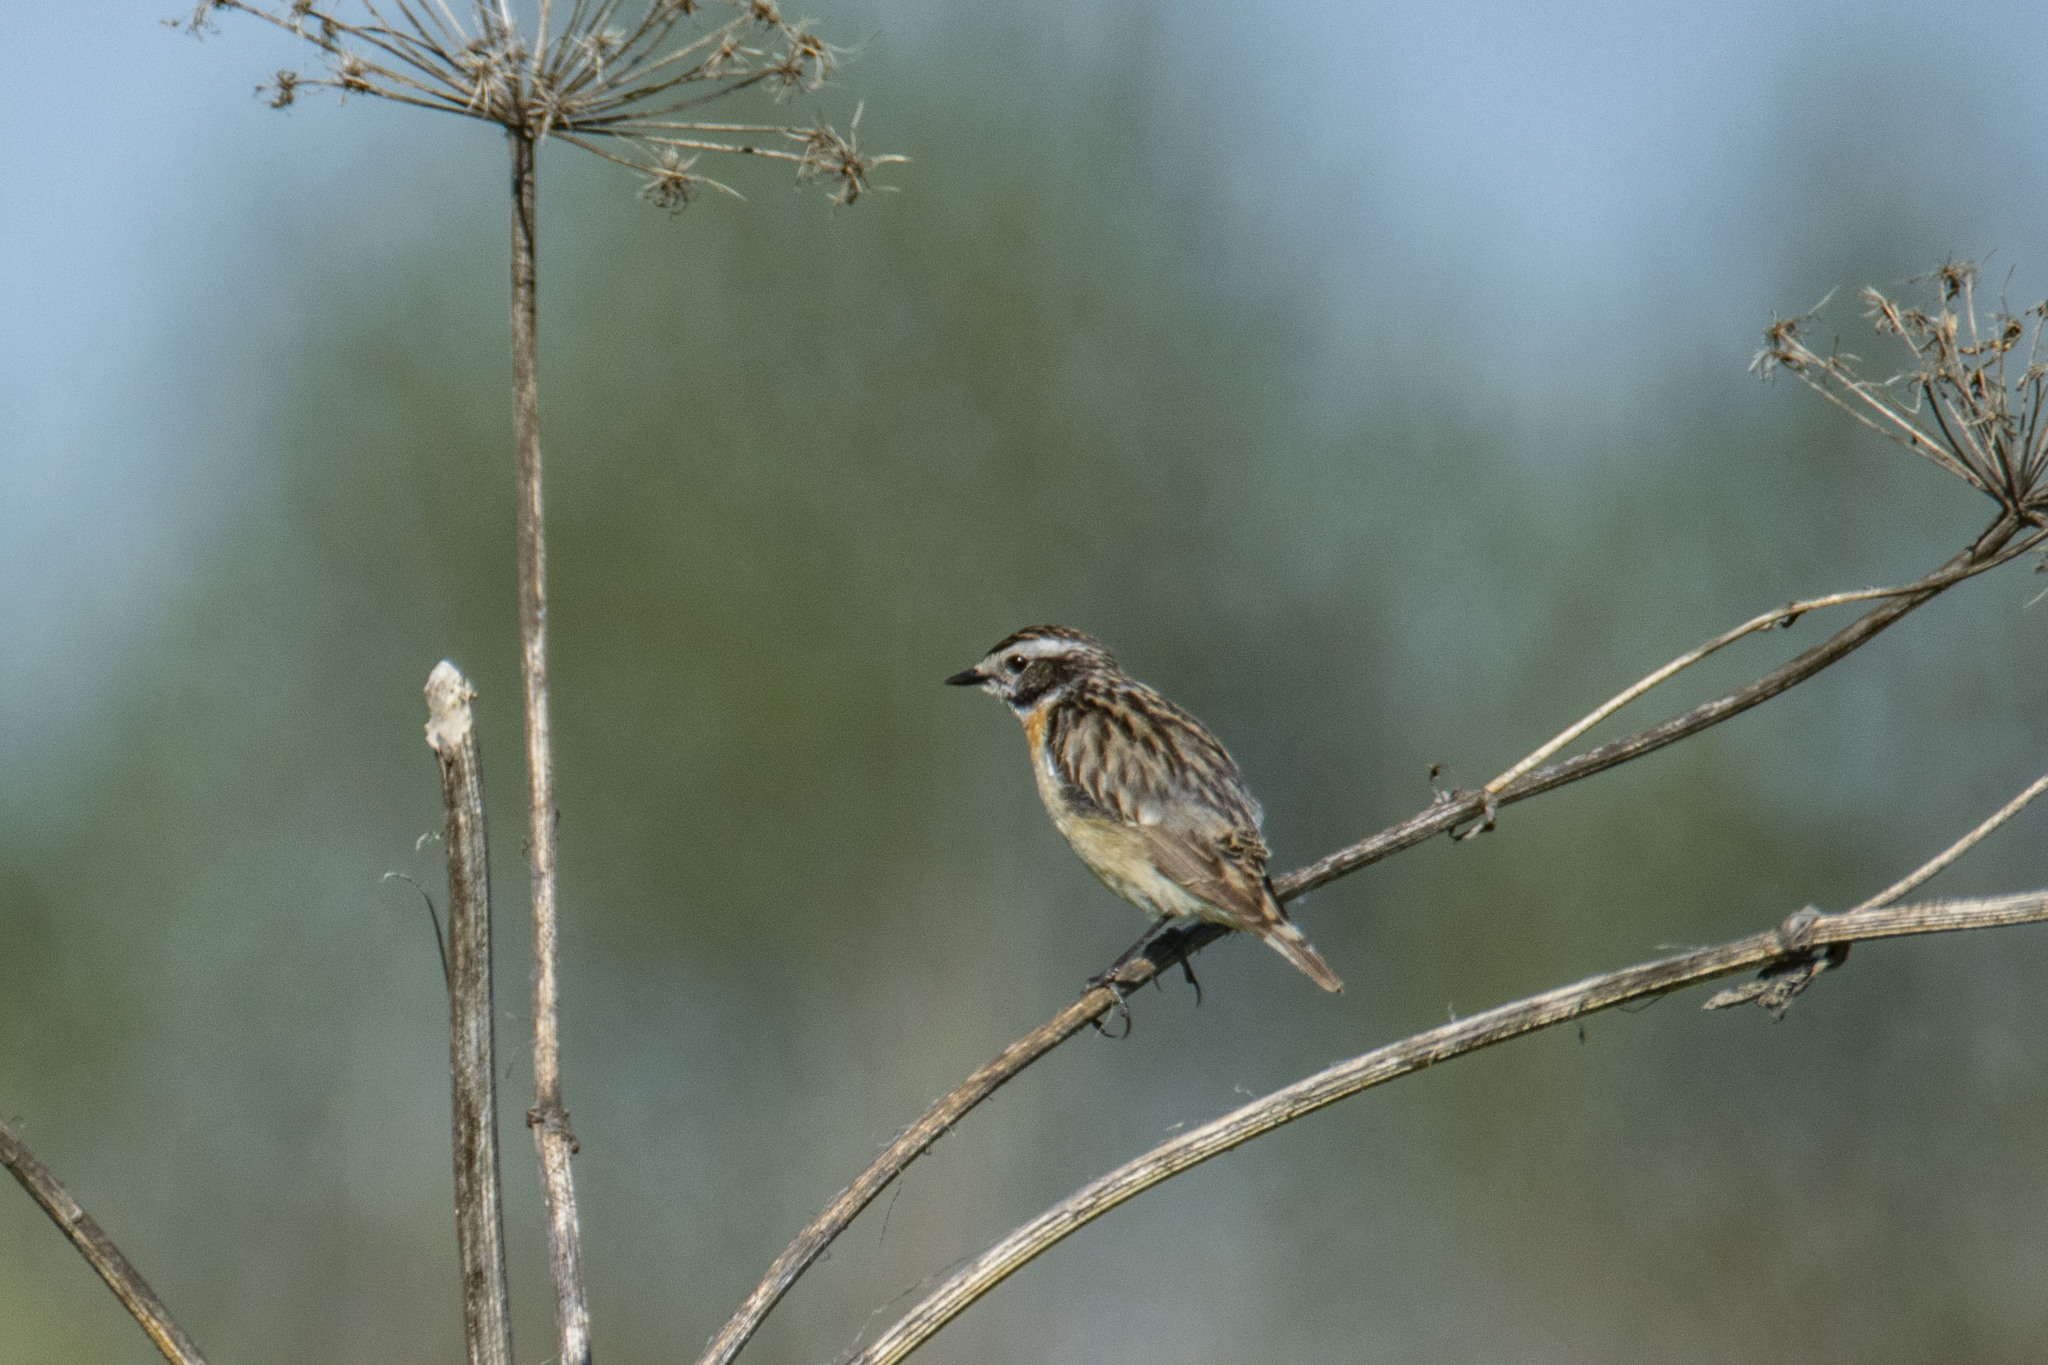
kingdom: Animalia
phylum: Chordata
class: Aves
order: Passeriformes
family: Muscicapidae
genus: Saxicola
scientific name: Saxicola rubetra
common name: Whinchat
